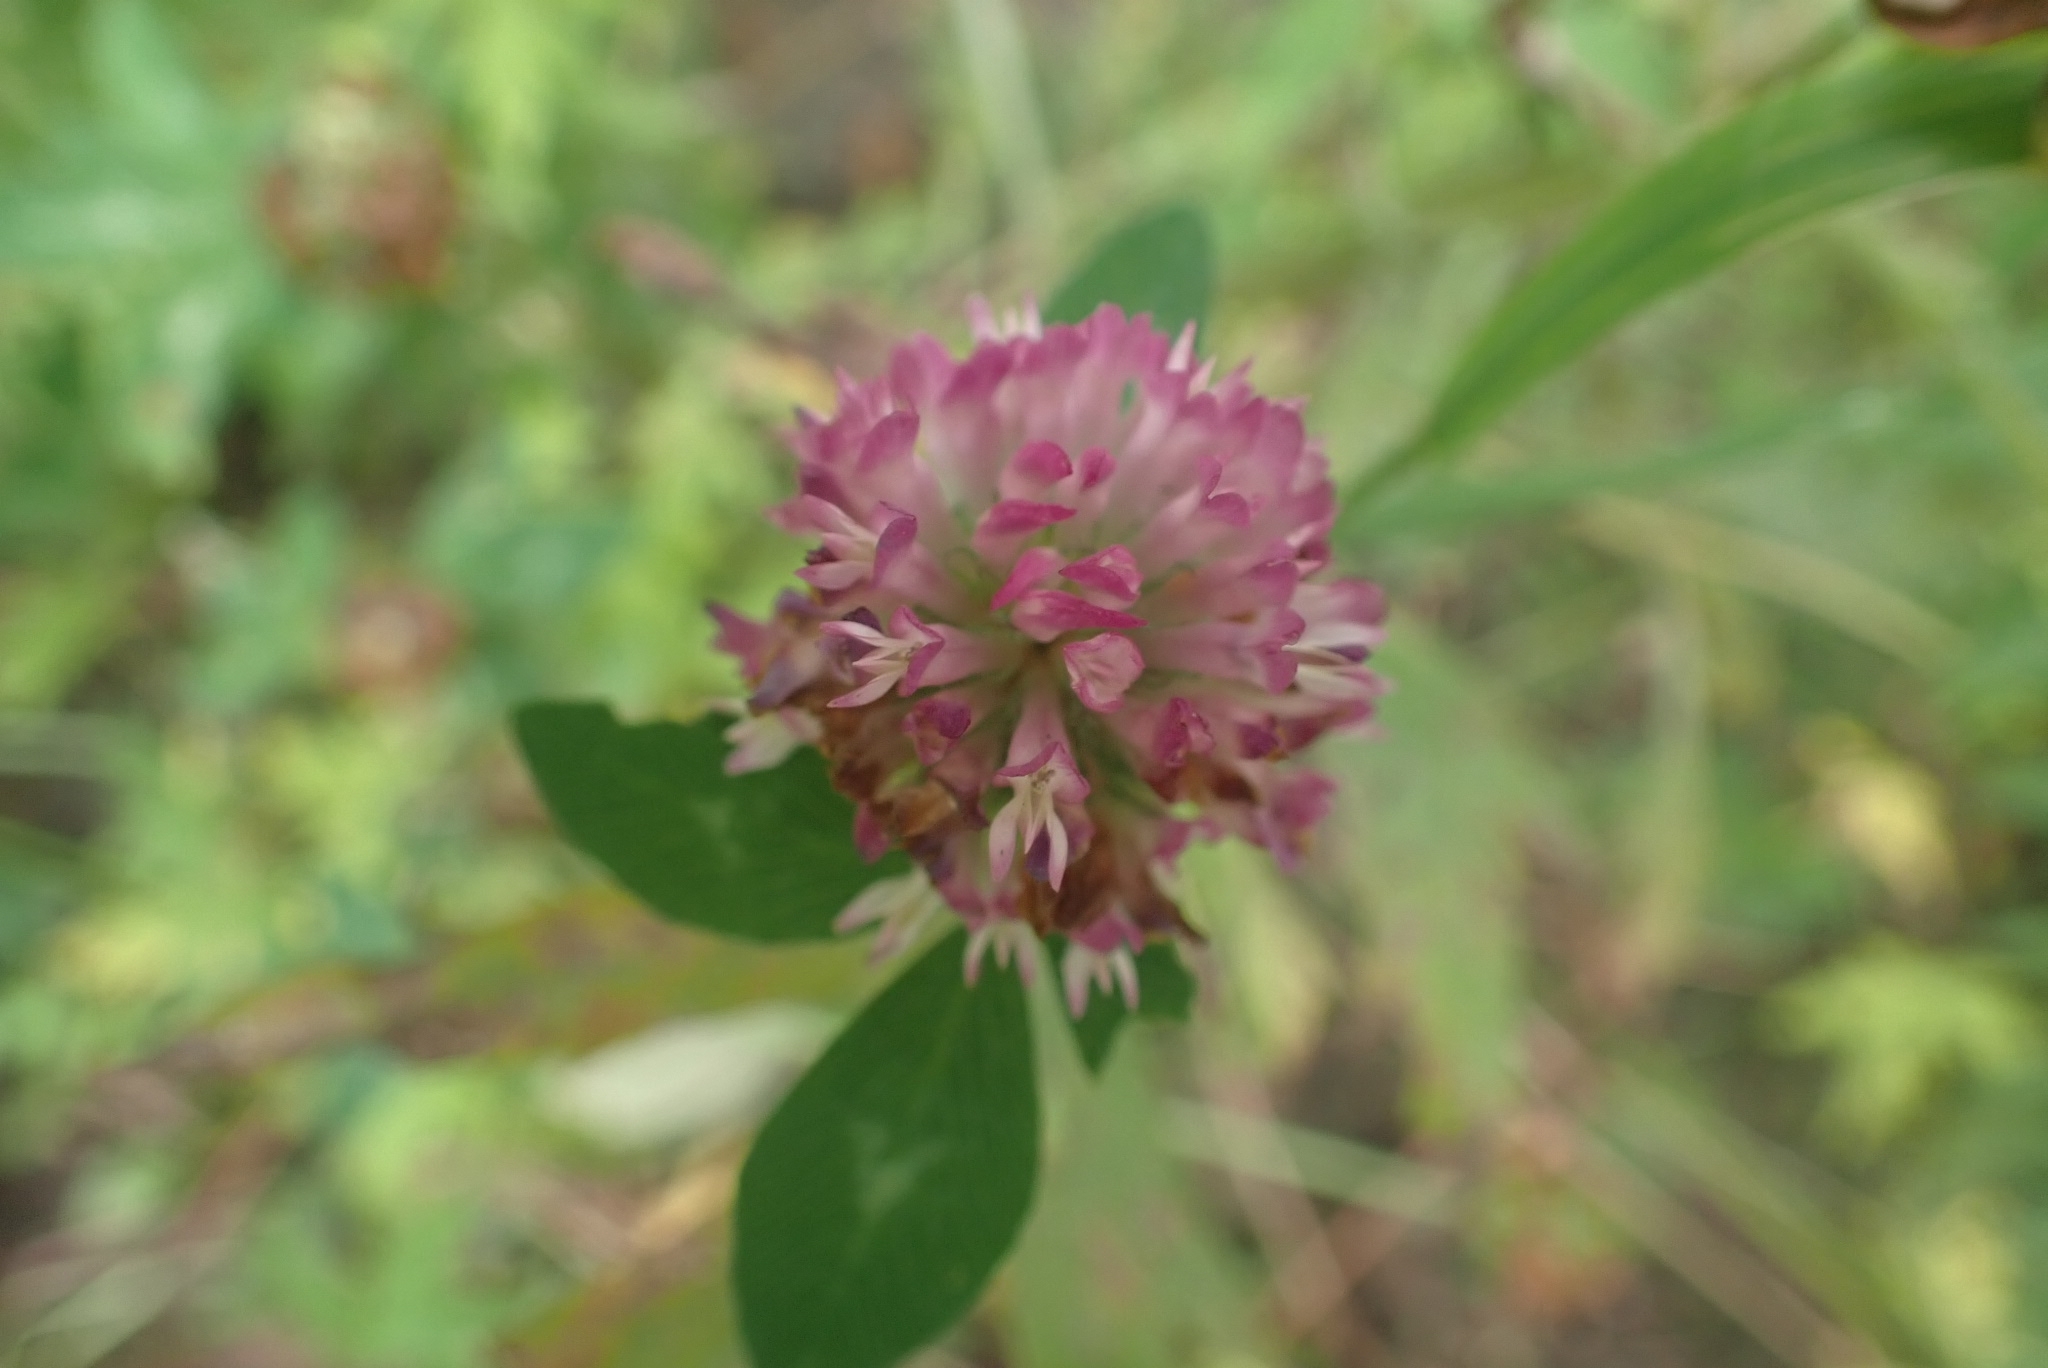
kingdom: Plantae
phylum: Tracheophyta
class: Magnoliopsida
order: Fabales
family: Fabaceae
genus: Trifolium
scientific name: Trifolium pratense
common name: Red clover
